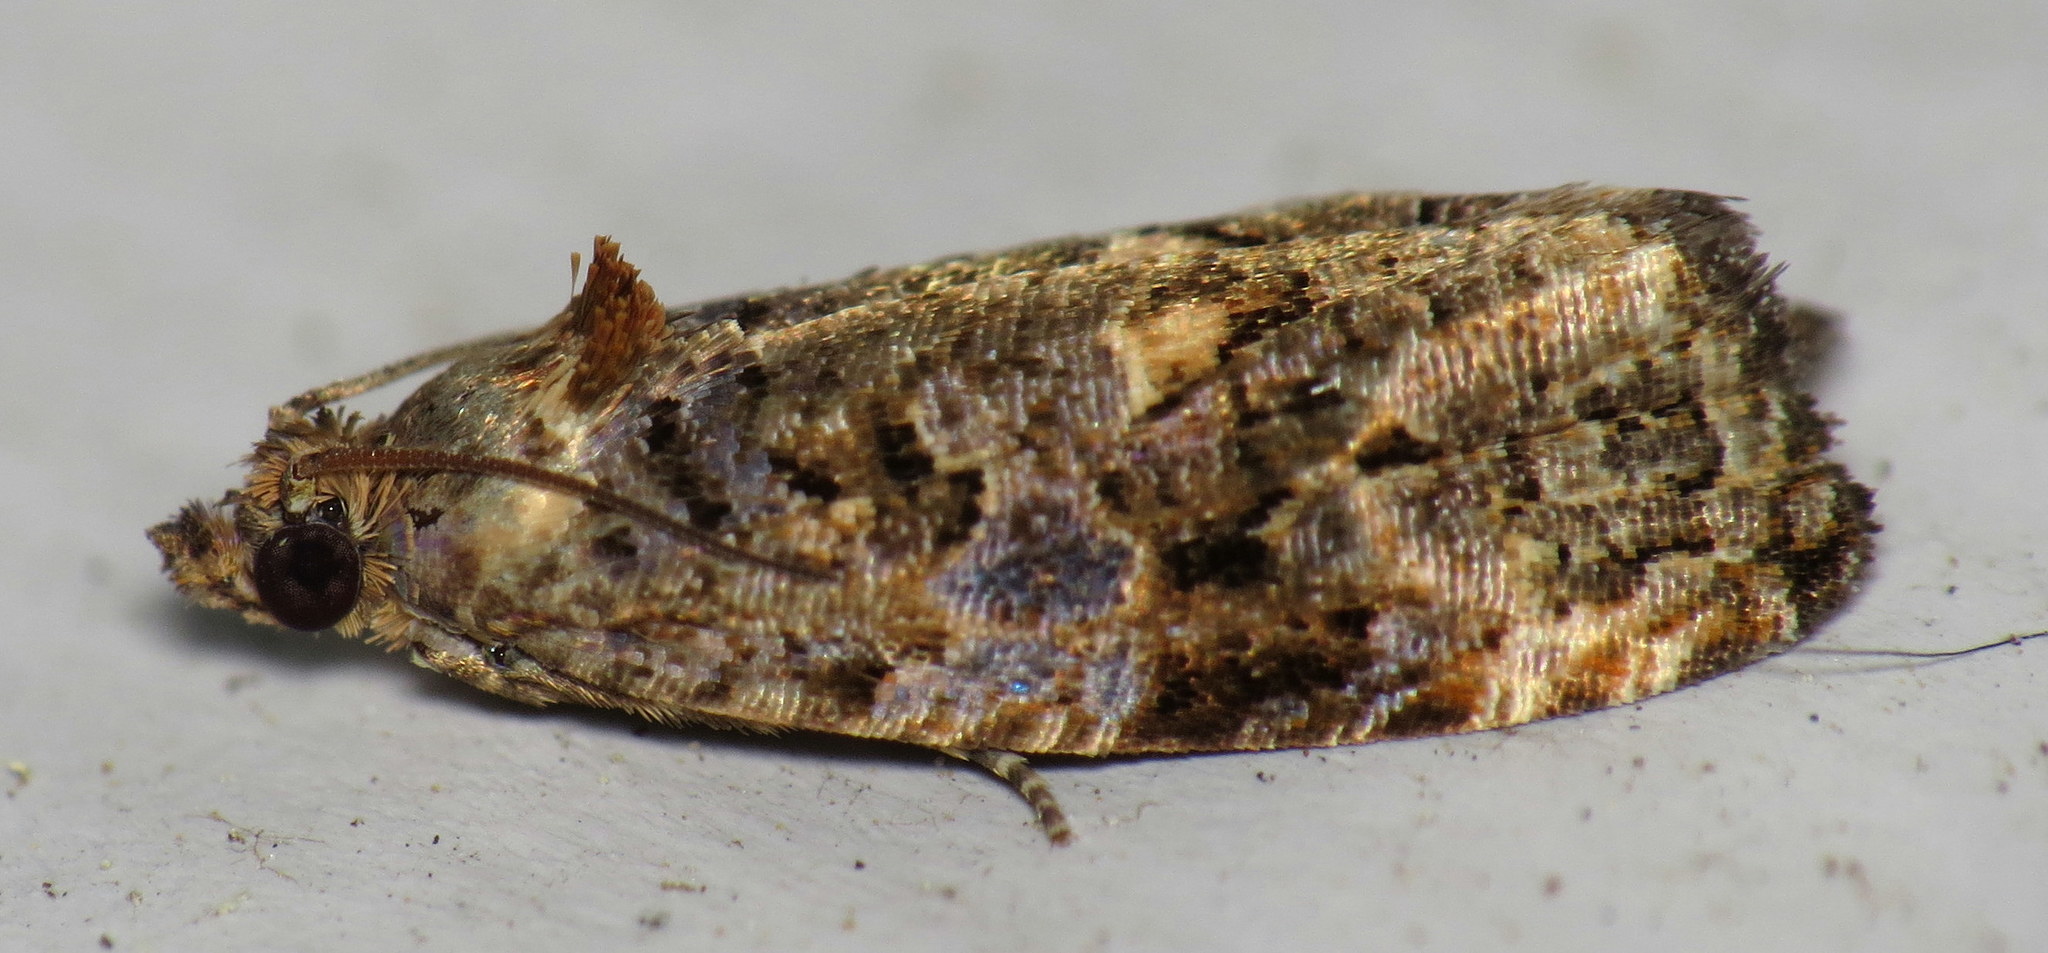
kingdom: Animalia
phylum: Arthropoda
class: Insecta
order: Lepidoptera
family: Tortricidae
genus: Endothenia
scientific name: Endothenia hebesana
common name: Verbena bud moth
